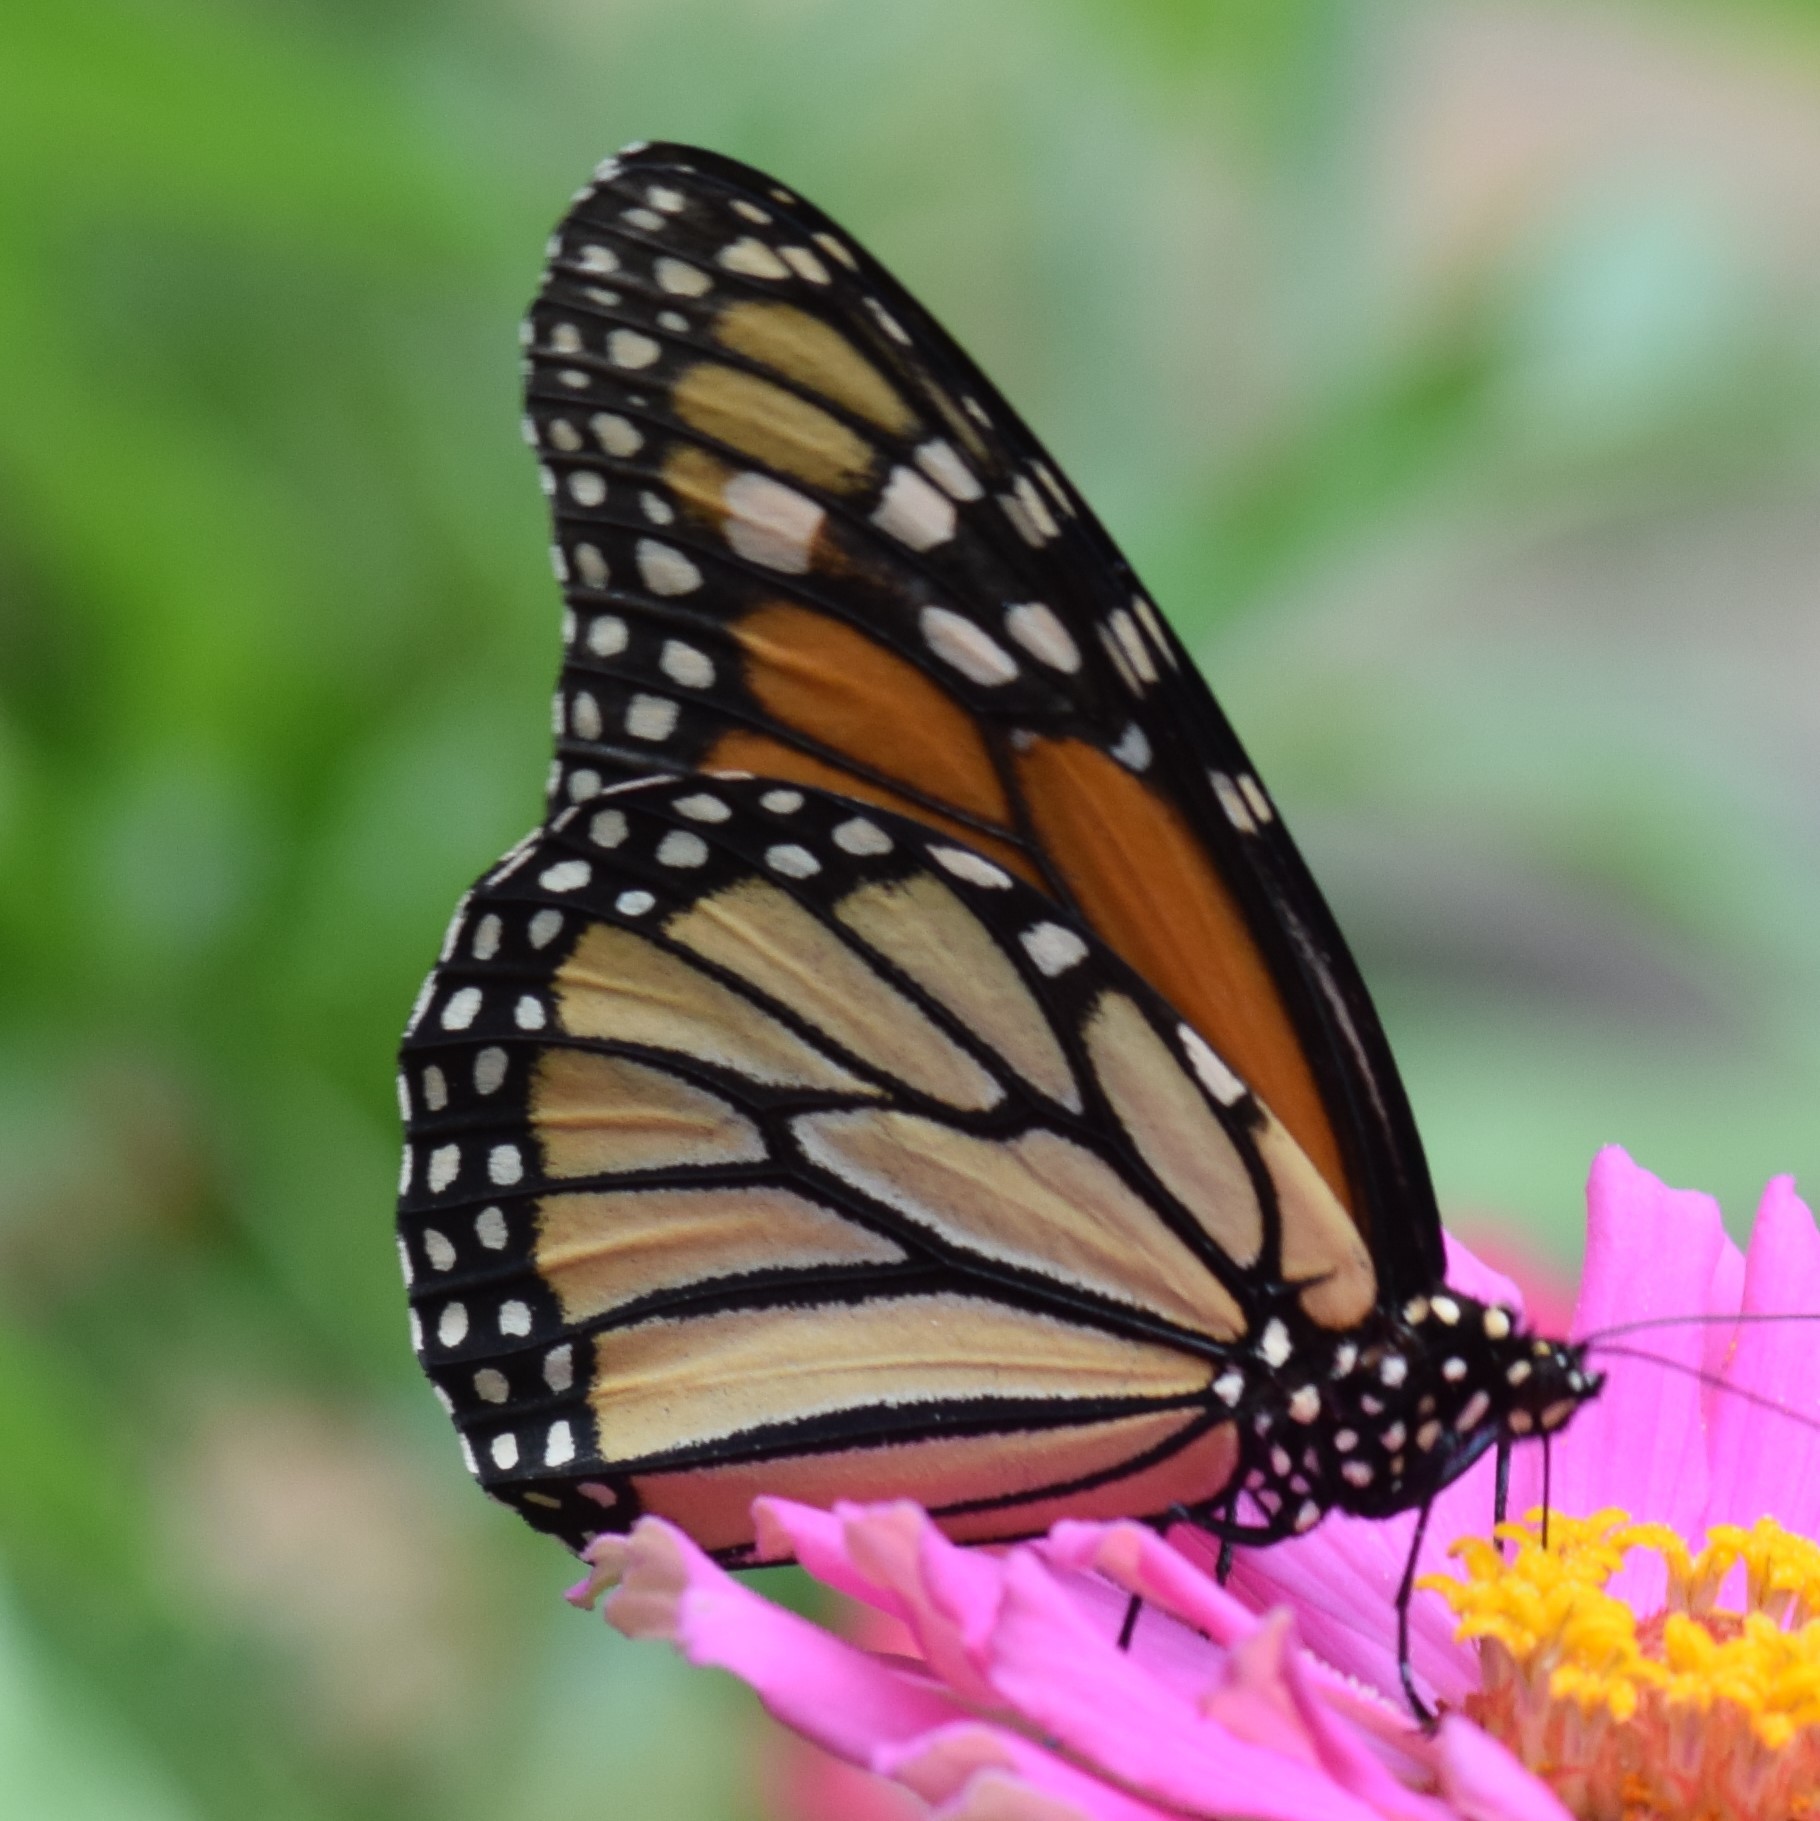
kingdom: Animalia
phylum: Arthropoda
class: Insecta
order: Lepidoptera
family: Nymphalidae
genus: Danaus
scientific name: Danaus plexippus
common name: Monarch
